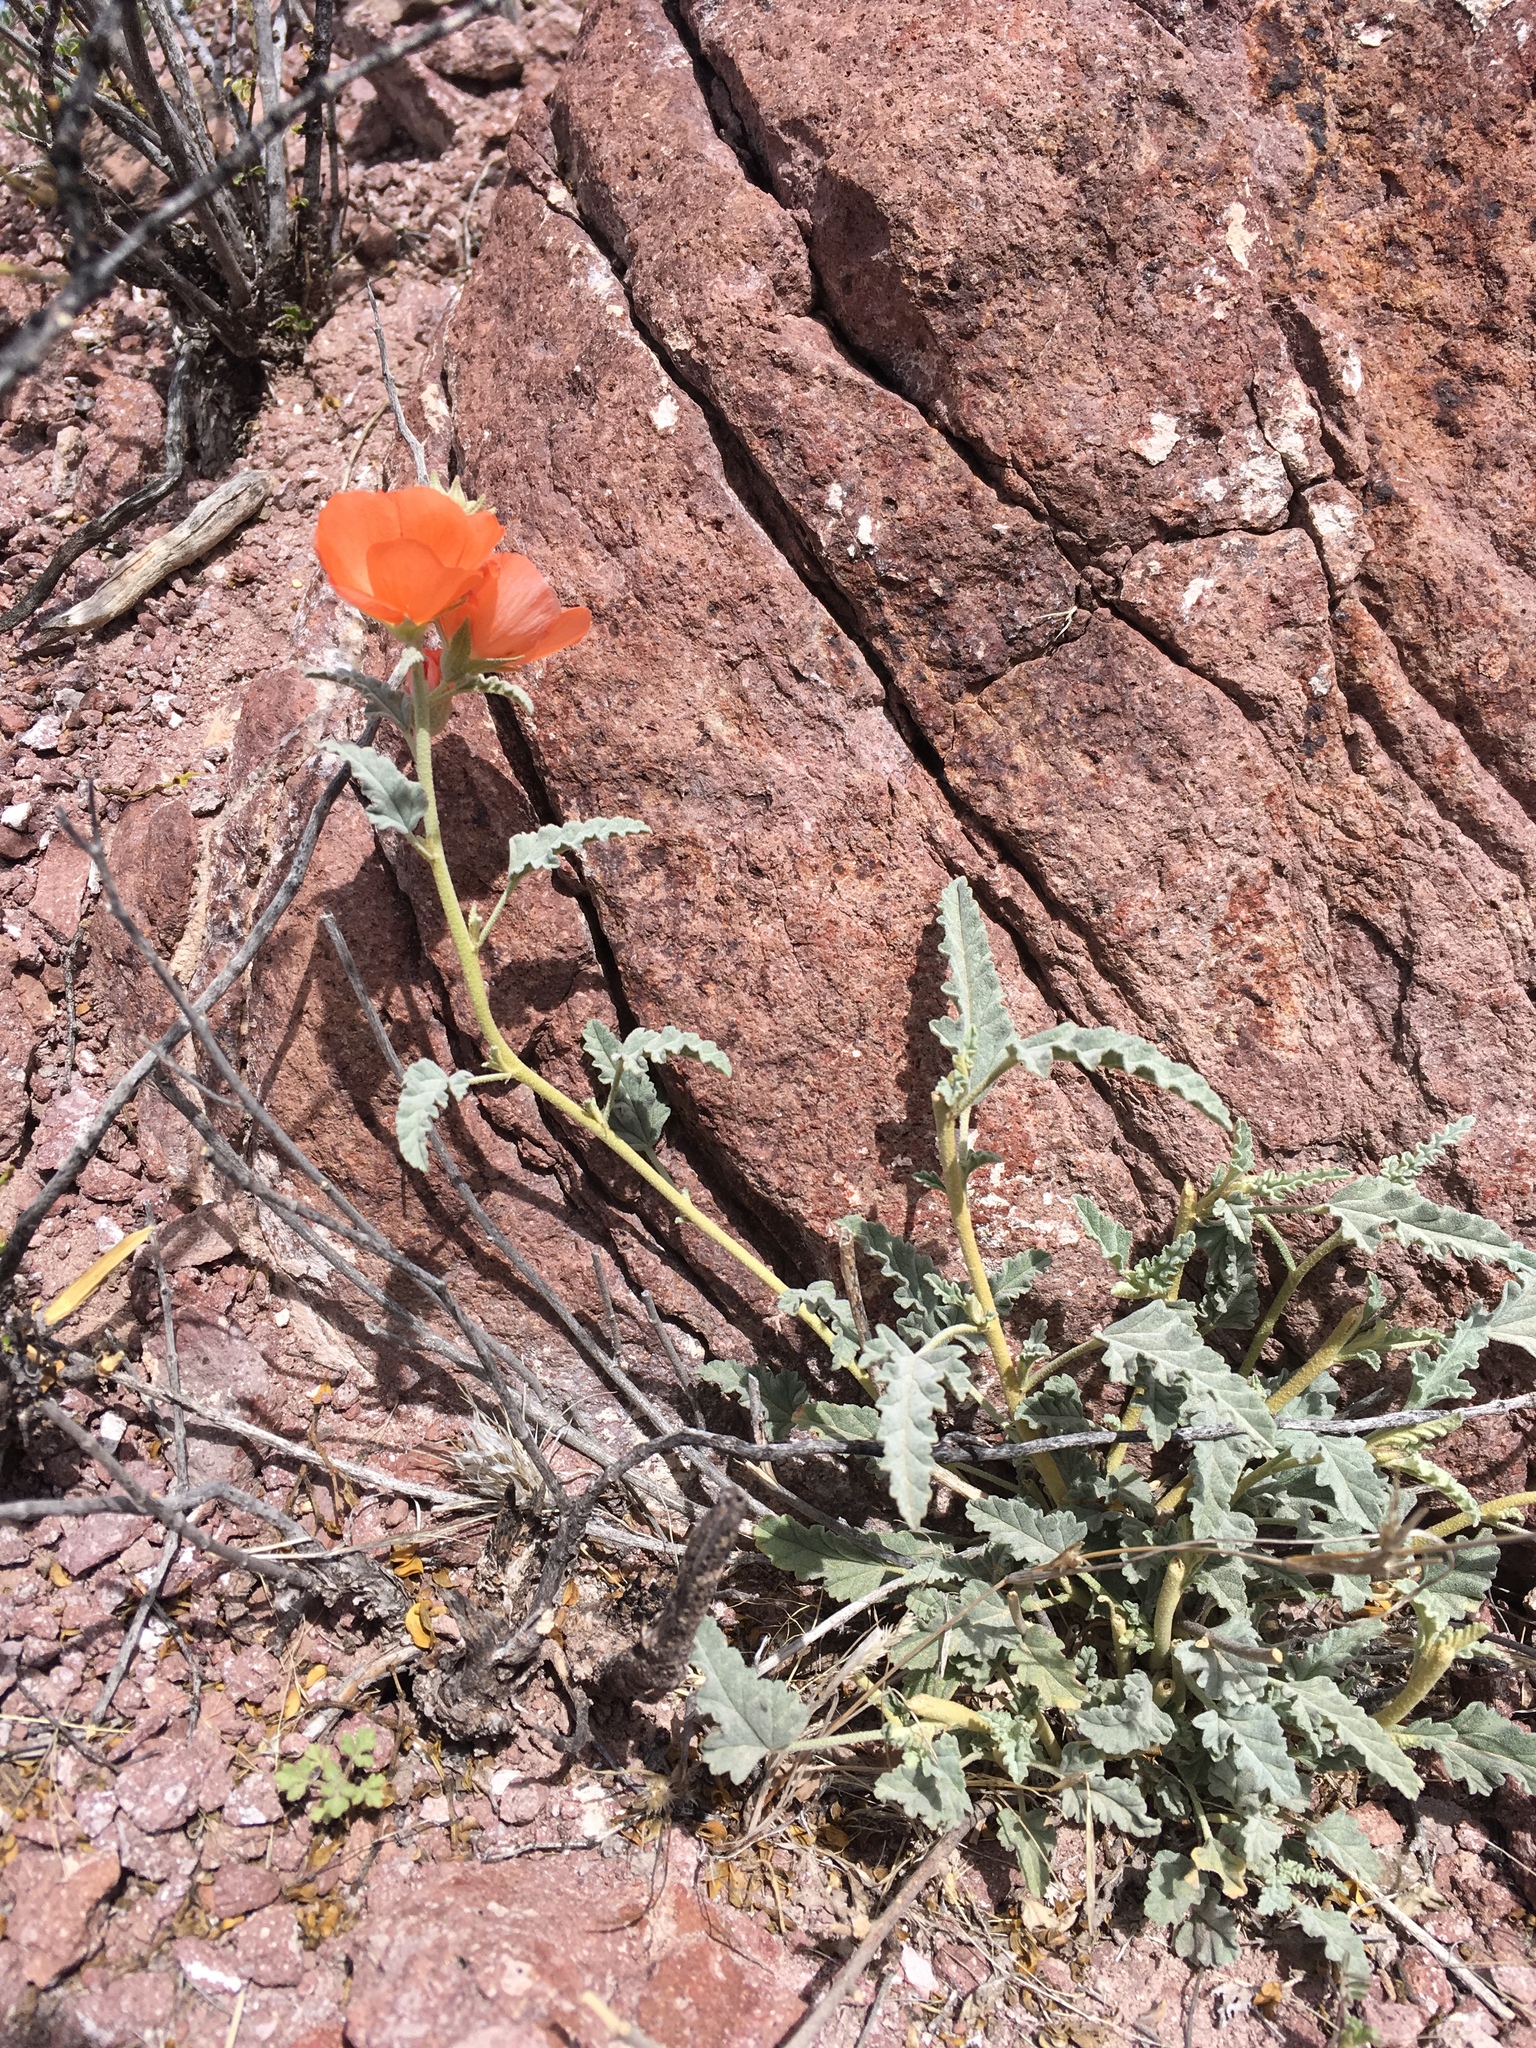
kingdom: Plantae
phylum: Tracheophyta
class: Magnoliopsida
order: Malvales
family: Malvaceae
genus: Sphaeralcea
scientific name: Sphaeralcea hastulata
